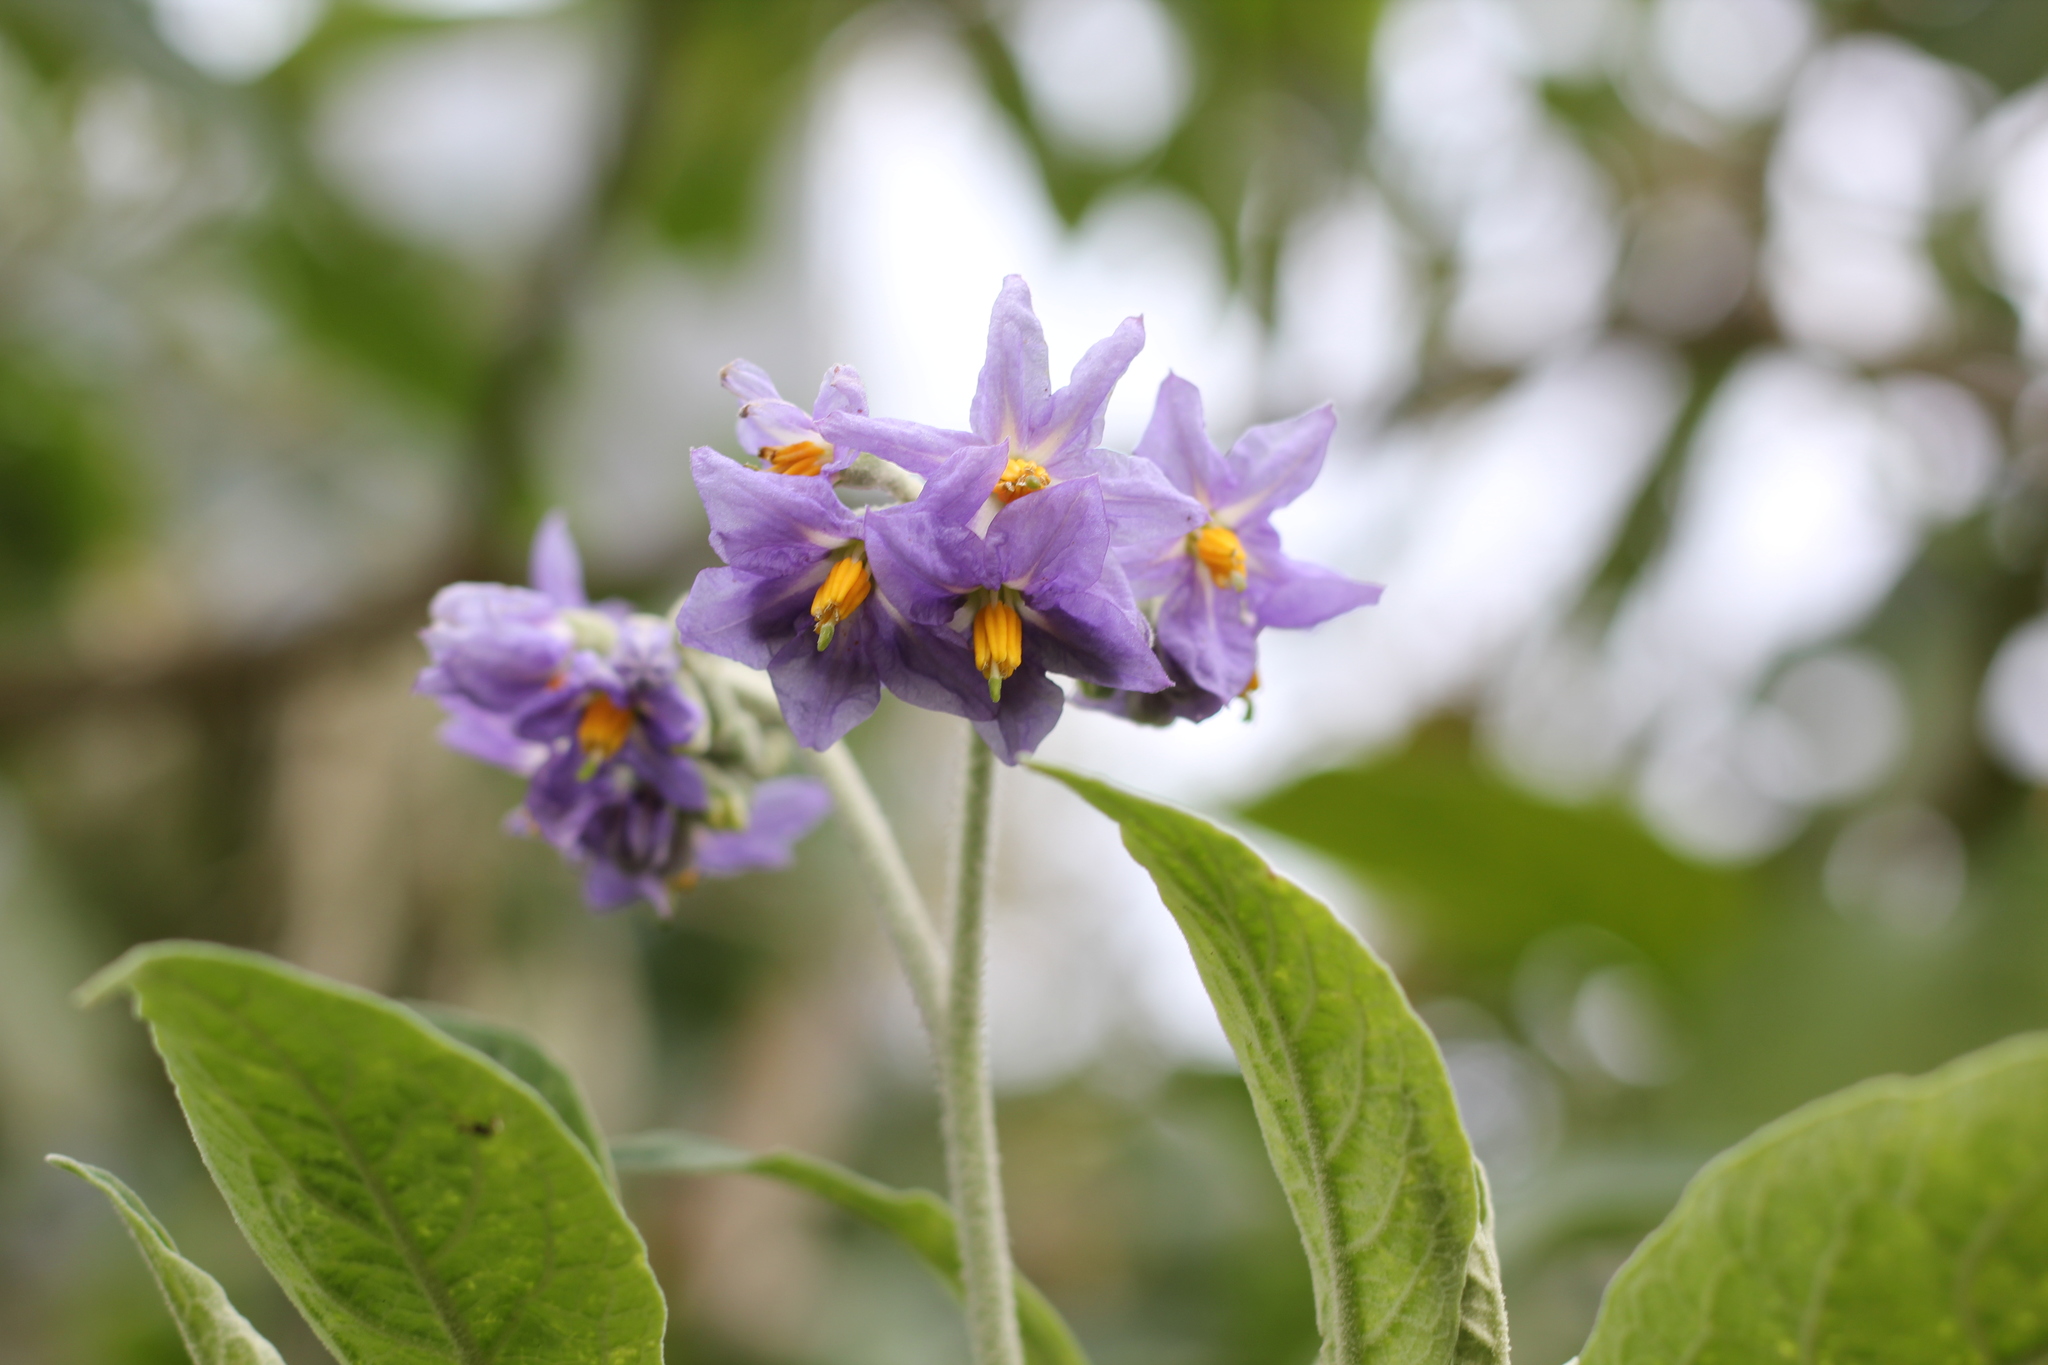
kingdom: Plantae
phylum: Tracheophyta
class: Magnoliopsida
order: Solanales
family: Solanaceae
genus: Solanum
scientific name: Solanum granulosoleprosum
